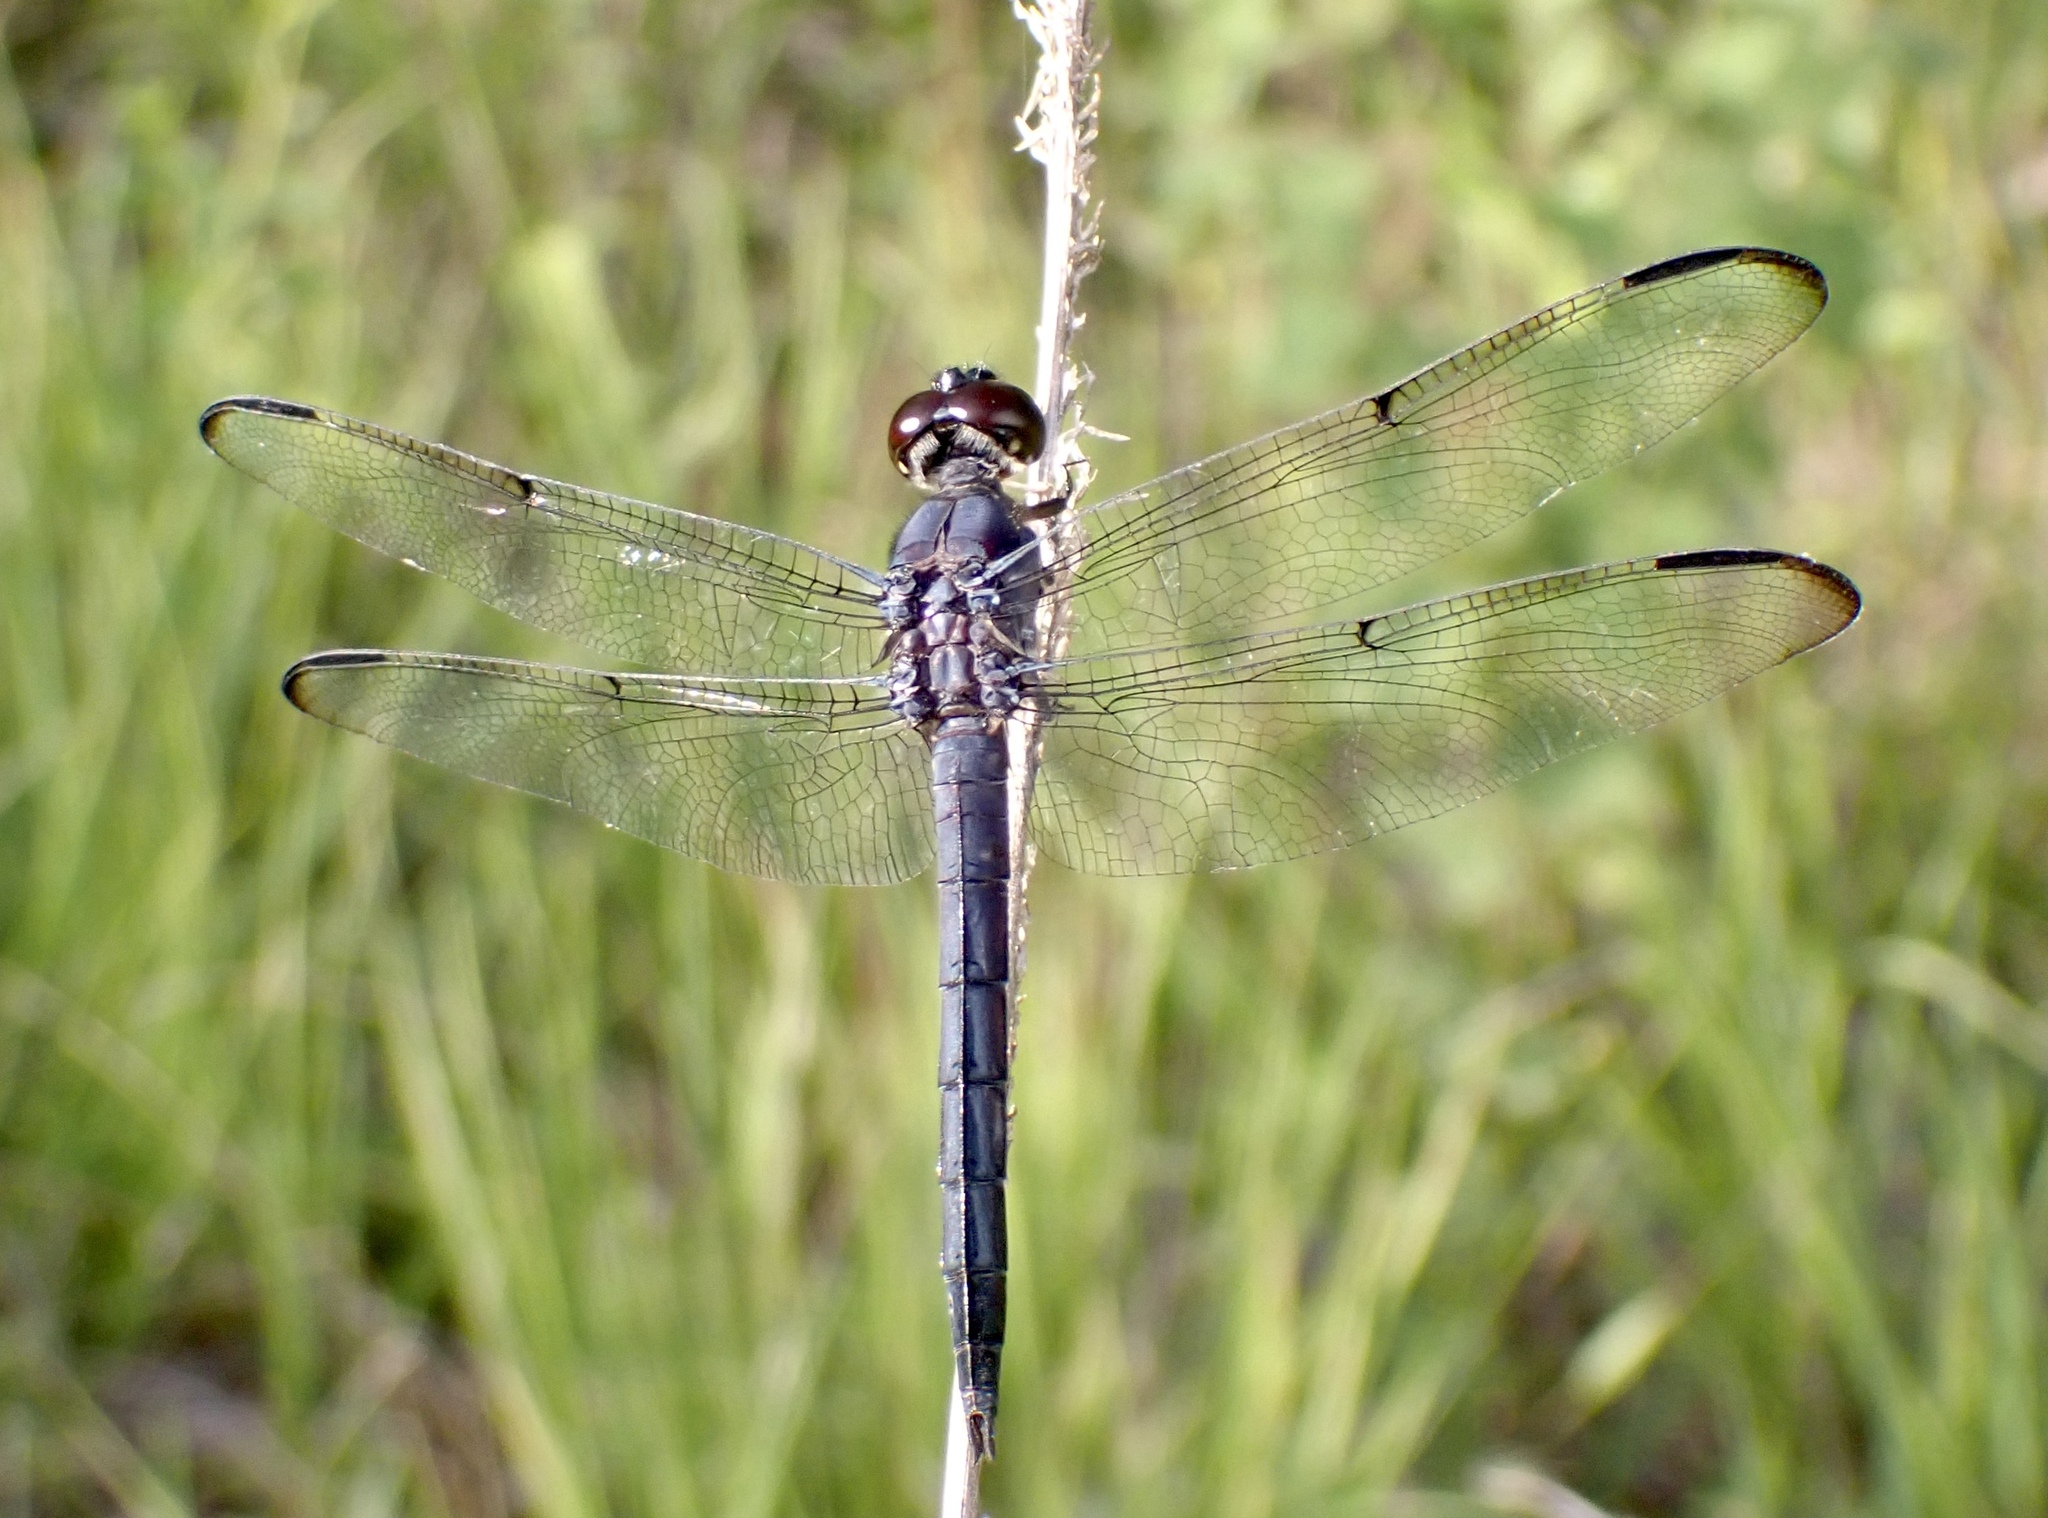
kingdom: Animalia
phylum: Arthropoda
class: Insecta
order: Odonata
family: Libellulidae
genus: Libellula
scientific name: Libellula incesta
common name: Slaty skimmer
